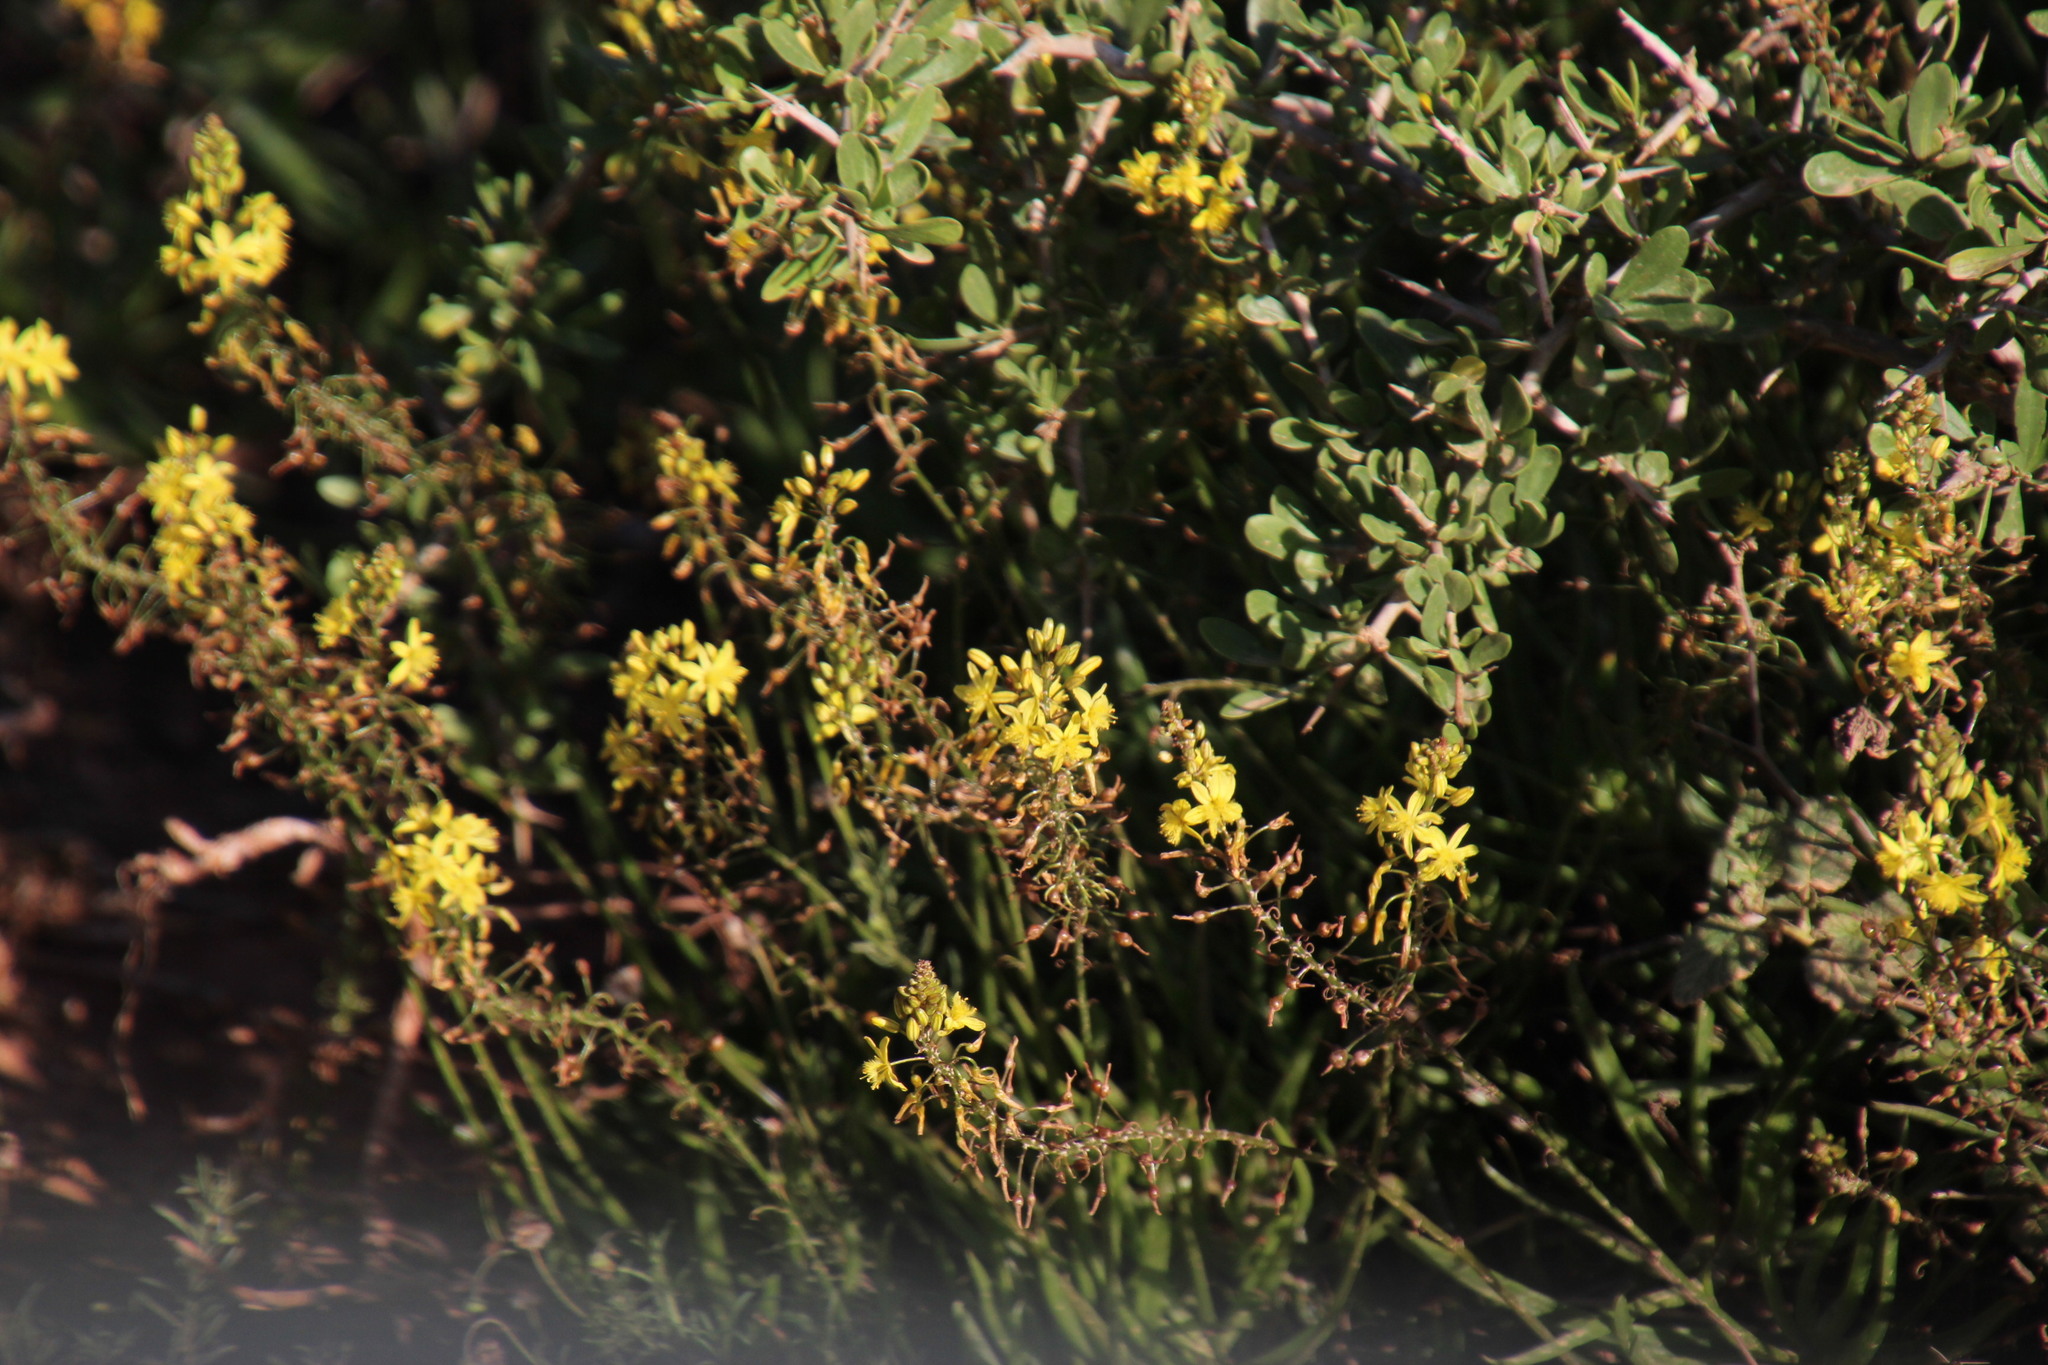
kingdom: Plantae
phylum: Tracheophyta
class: Liliopsida
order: Asparagales
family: Asphodelaceae
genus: Bulbine
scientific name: Bulbine frutescens
